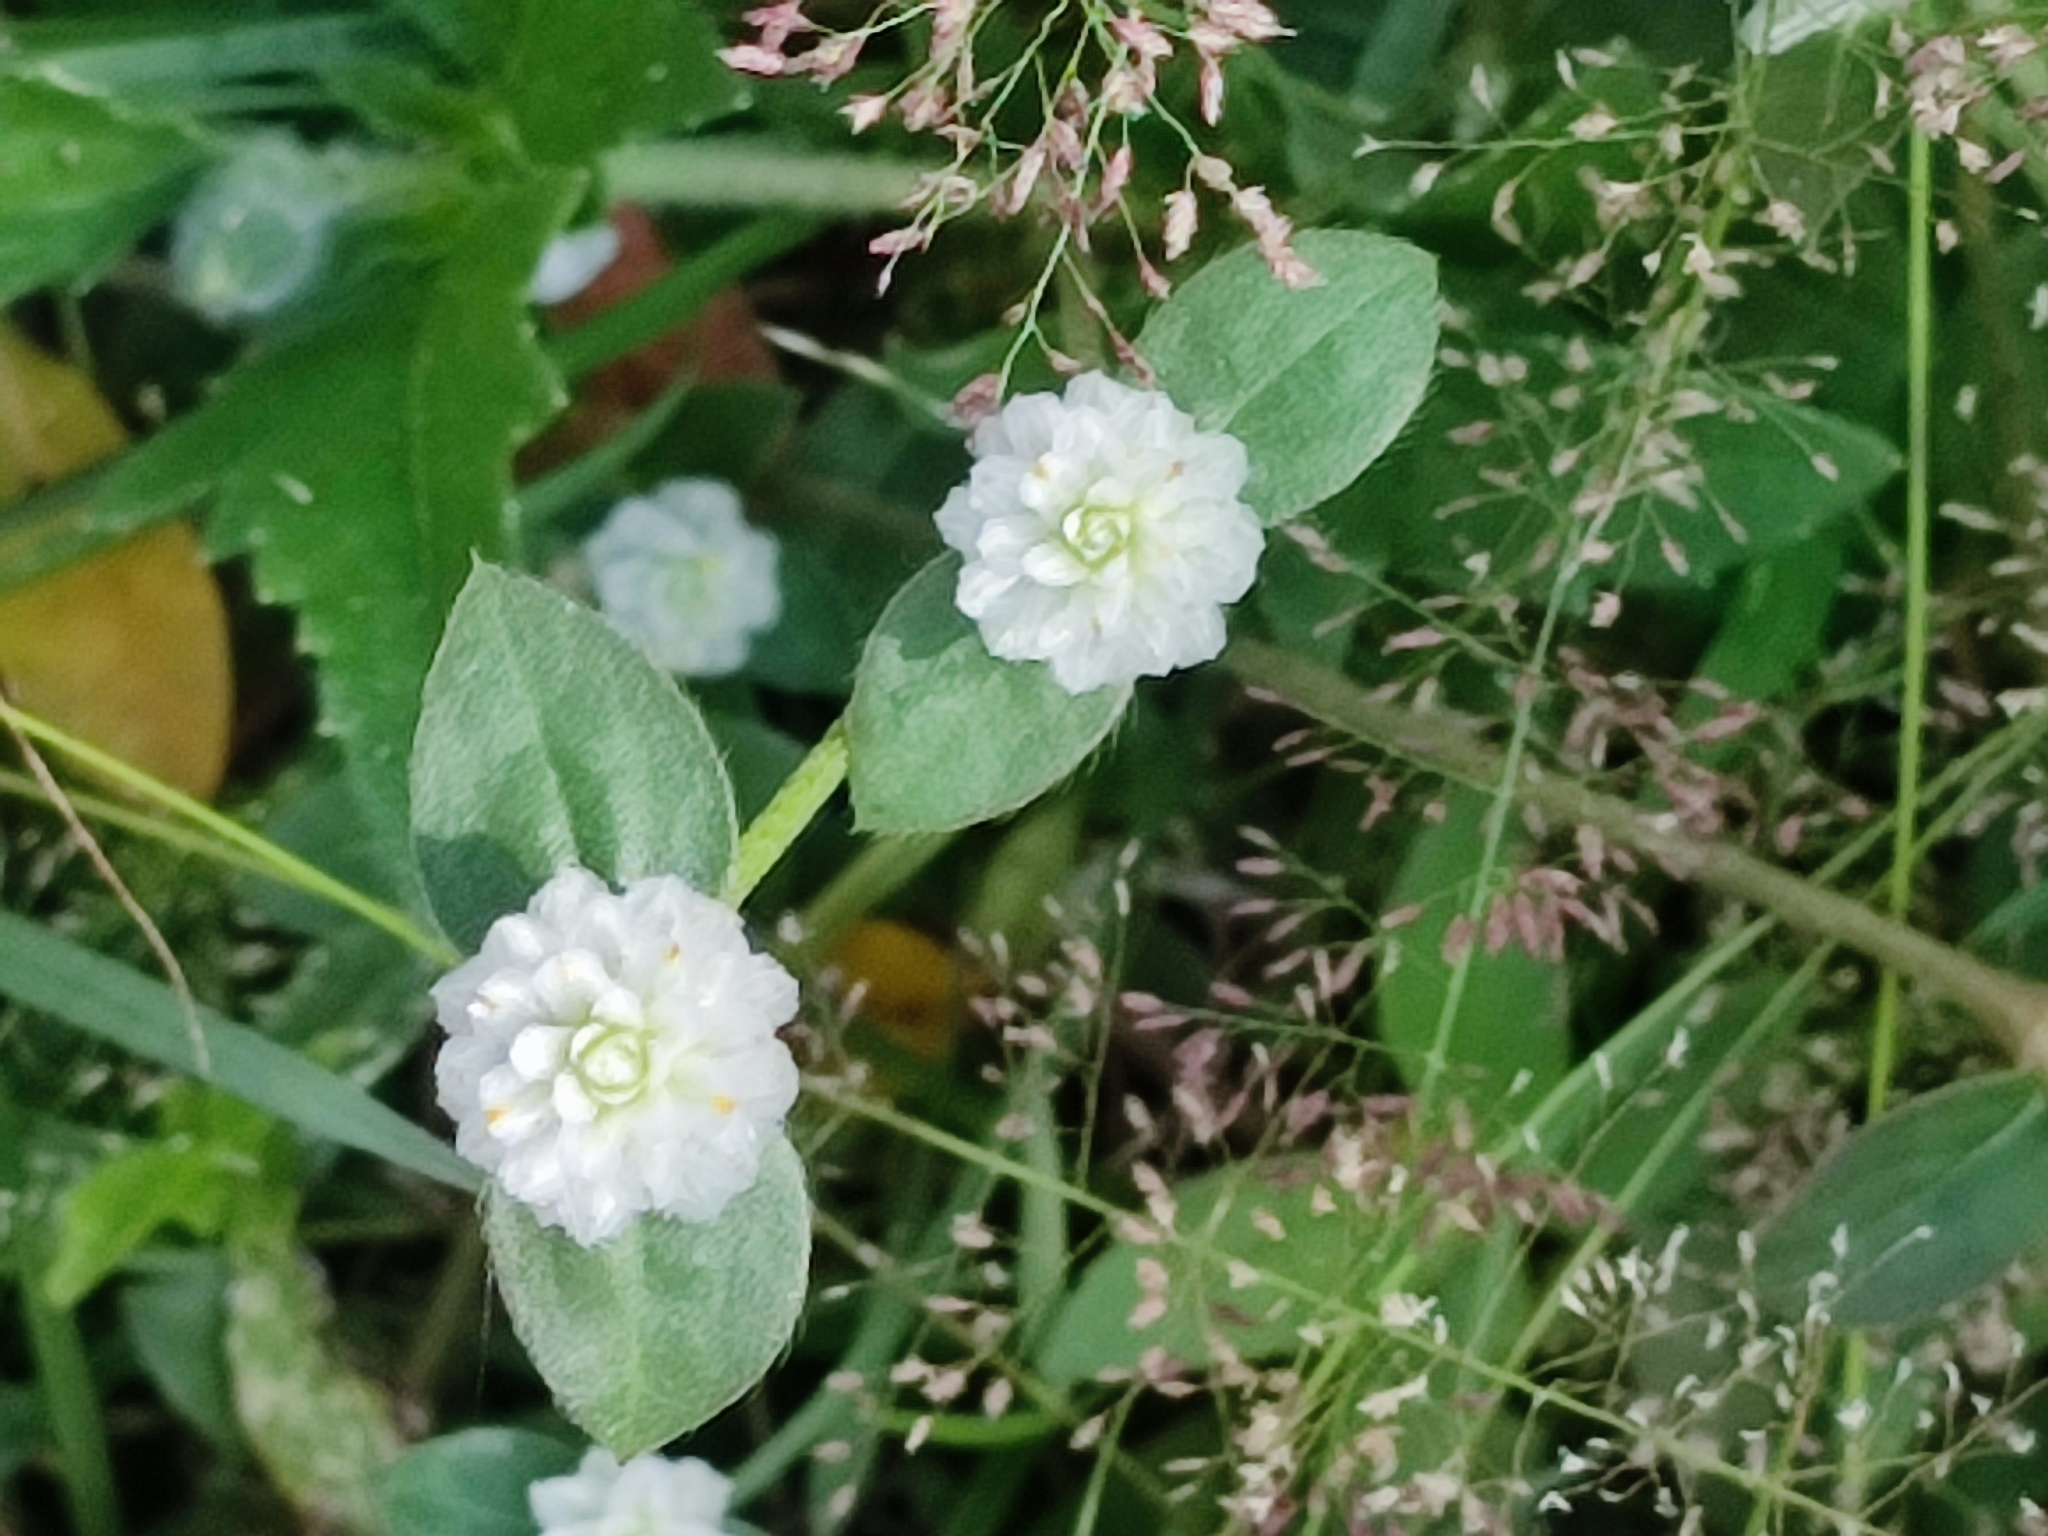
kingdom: Plantae
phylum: Tracheophyta
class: Magnoliopsida
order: Caryophyllales
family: Amaranthaceae
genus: Gomphrena
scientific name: Gomphrena serrata
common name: Arrasa con todo
